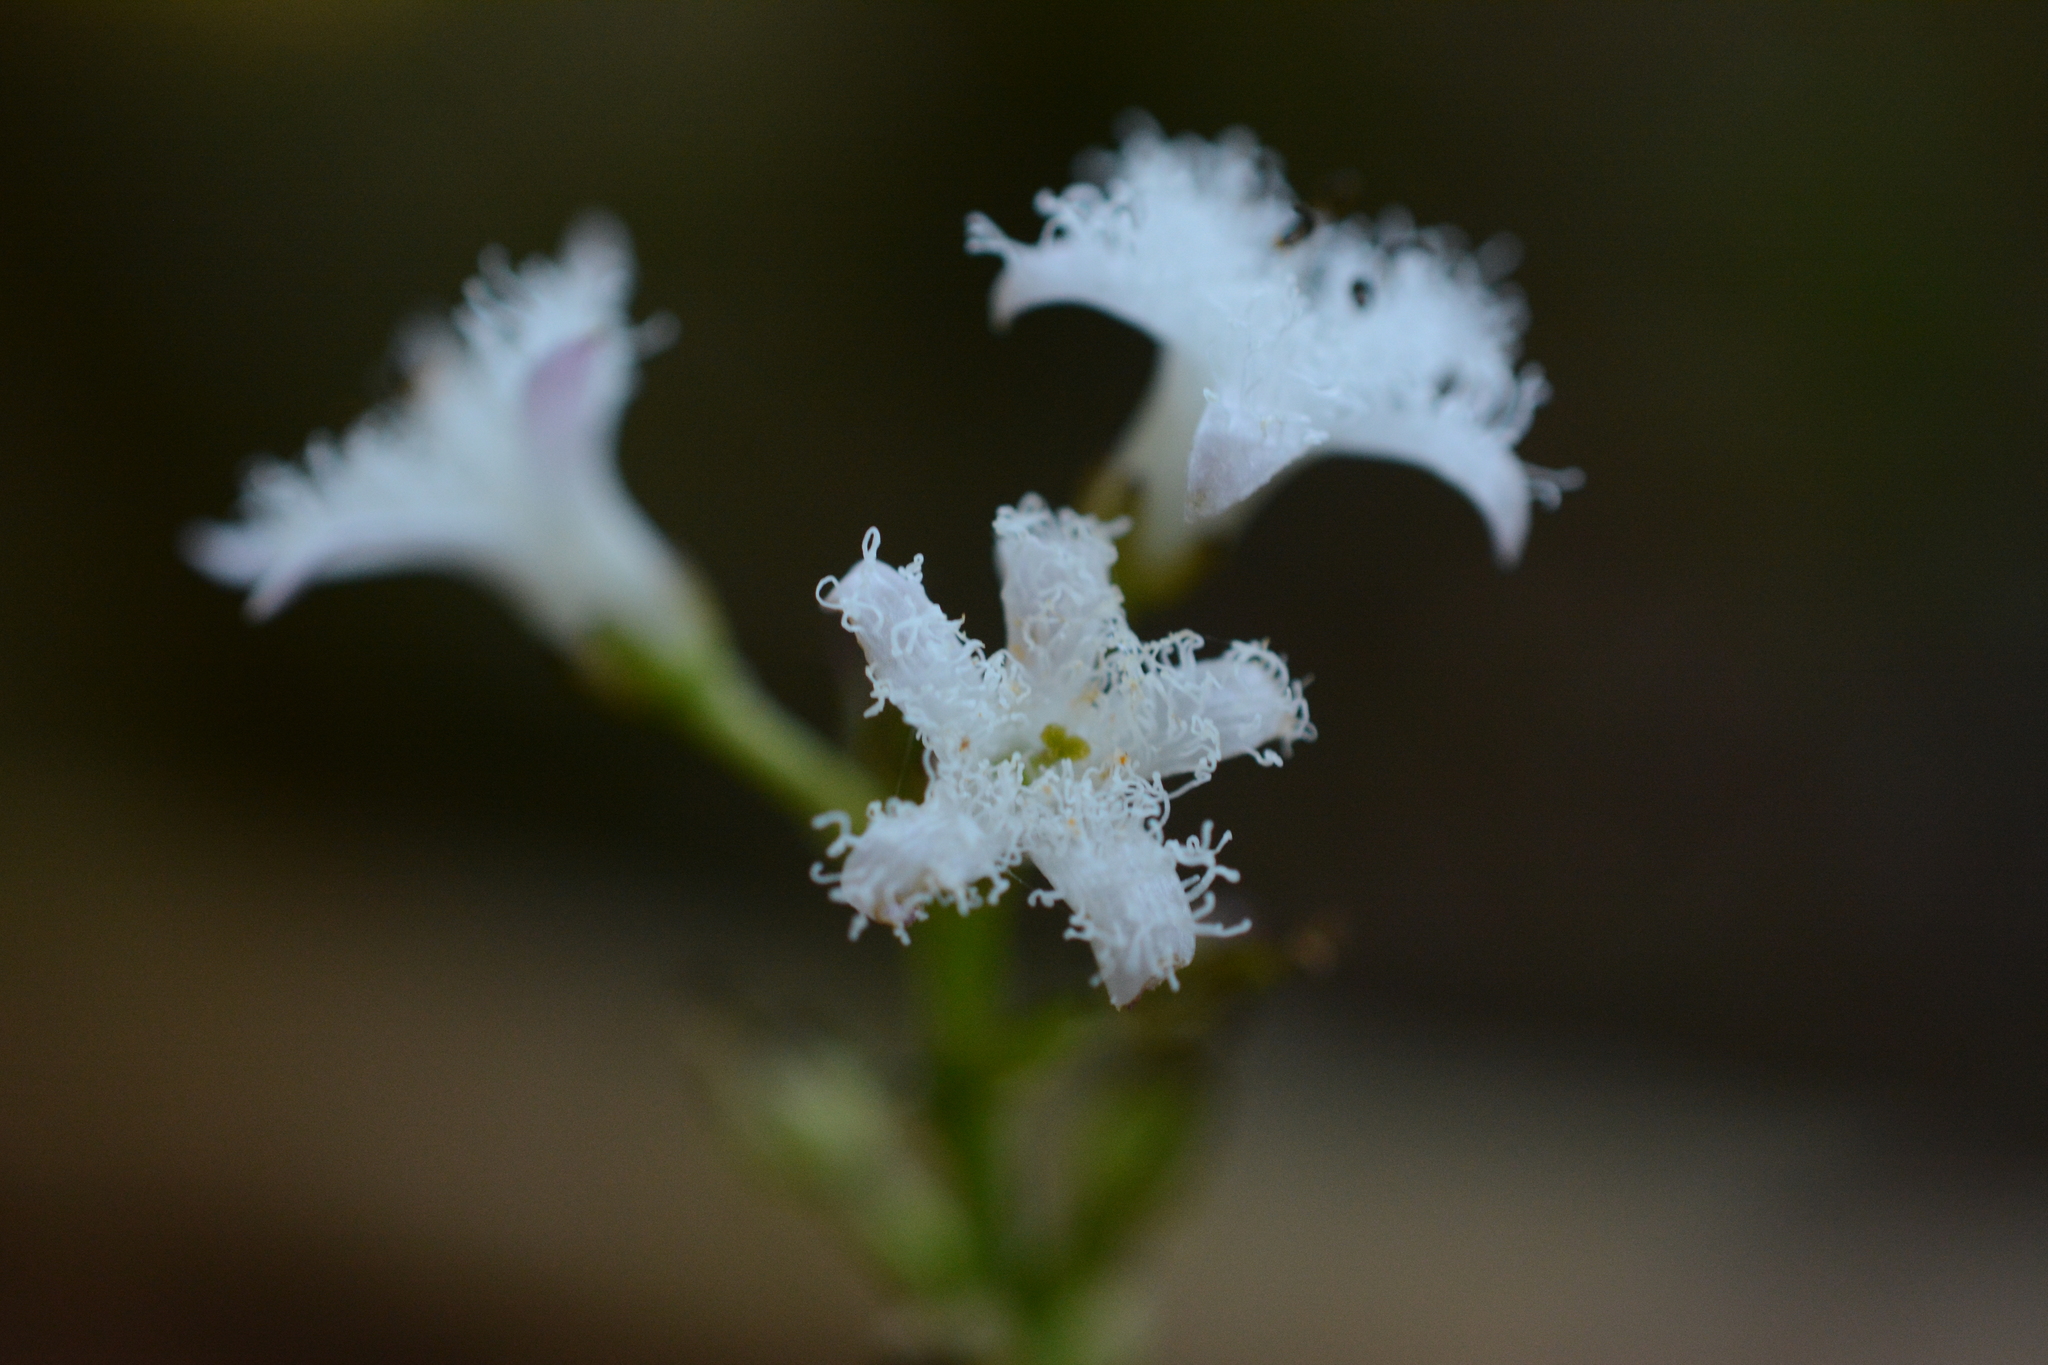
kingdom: Plantae
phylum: Tracheophyta
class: Magnoliopsida
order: Asterales
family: Menyanthaceae
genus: Menyanthes
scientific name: Menyanthes trifoliata
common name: Bogbean
